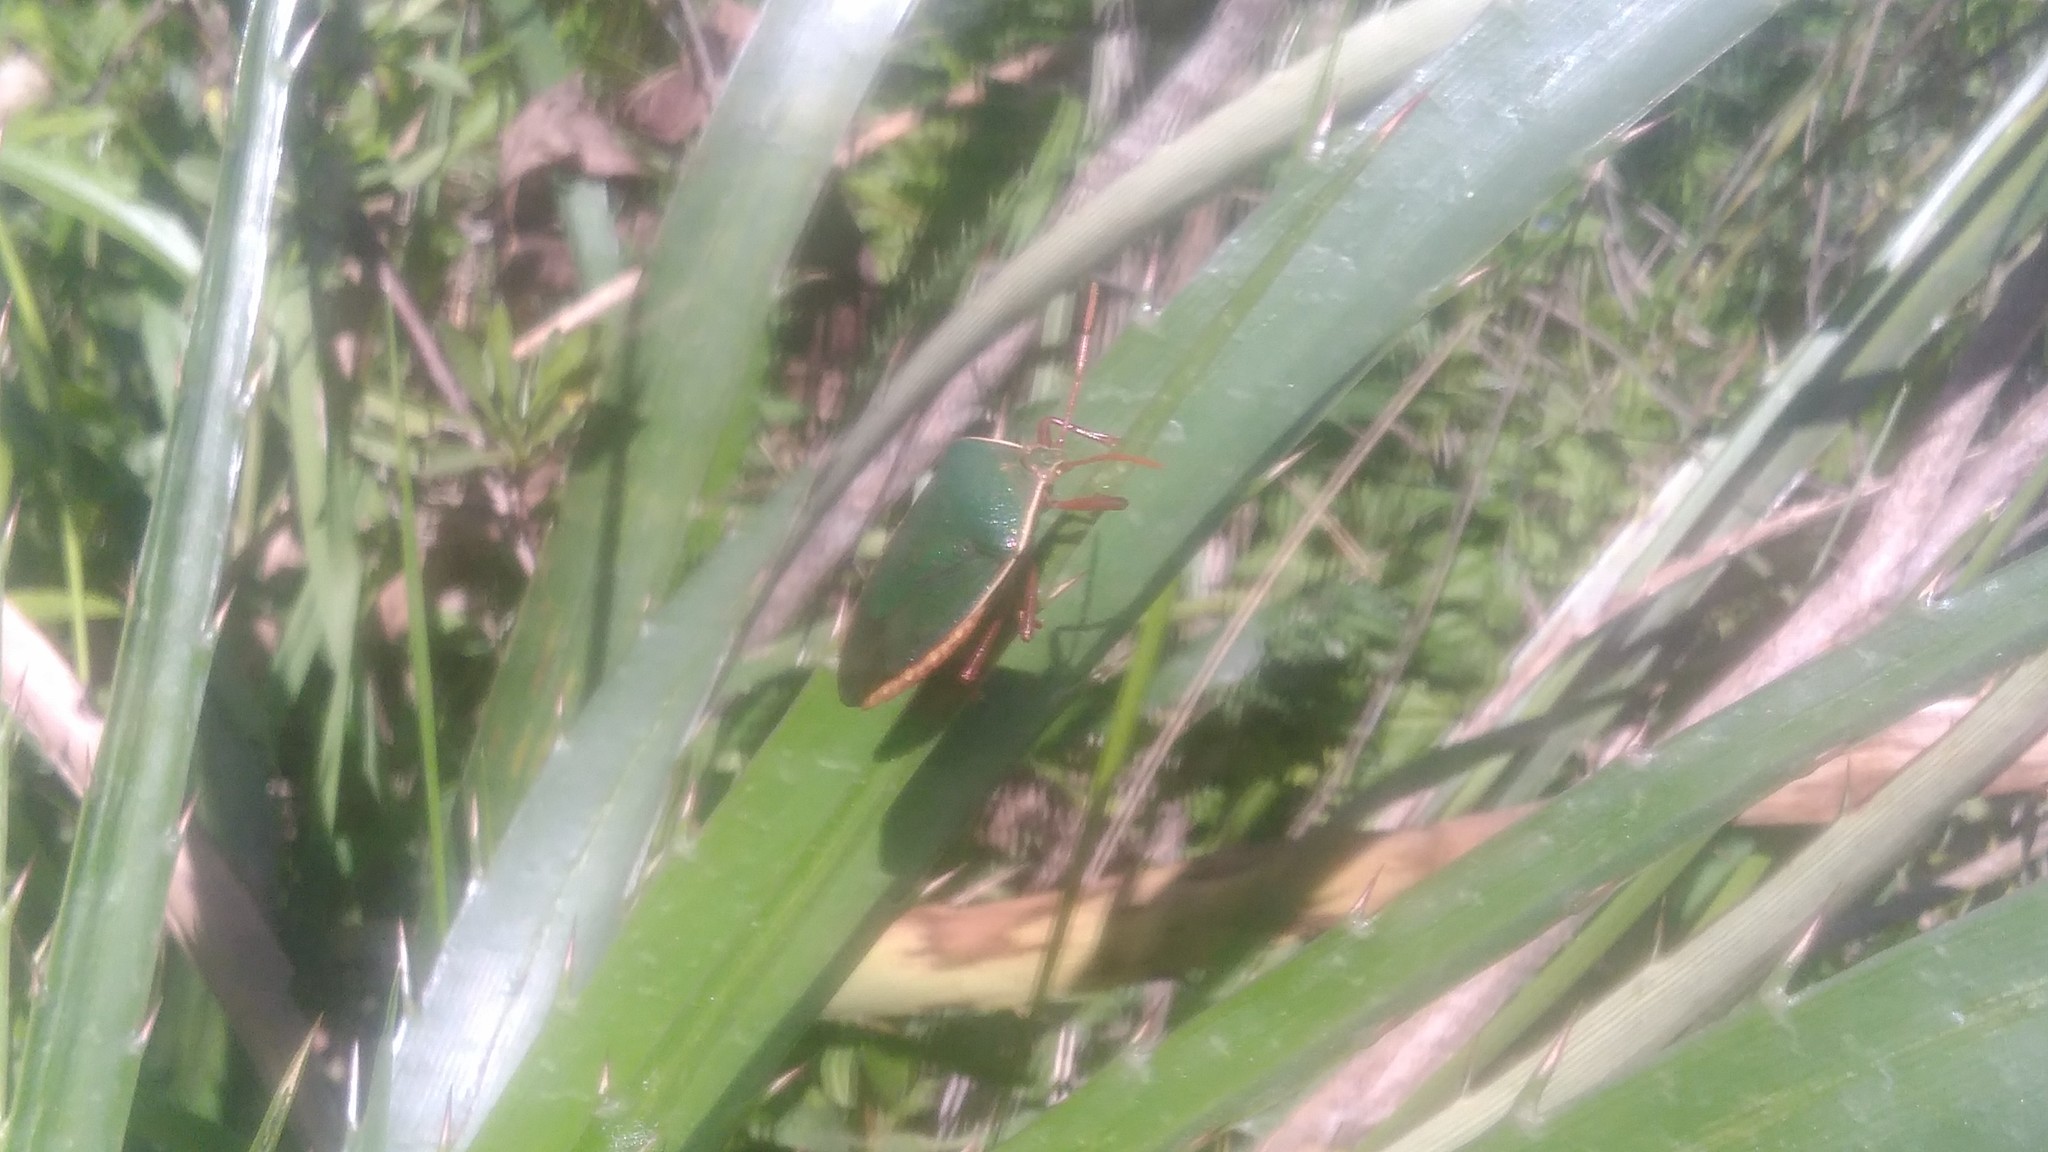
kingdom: Animalia
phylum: Arthropoda
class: Insecta
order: Hemiptera
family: Pentatomidae
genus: Edessa
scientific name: Edessa
